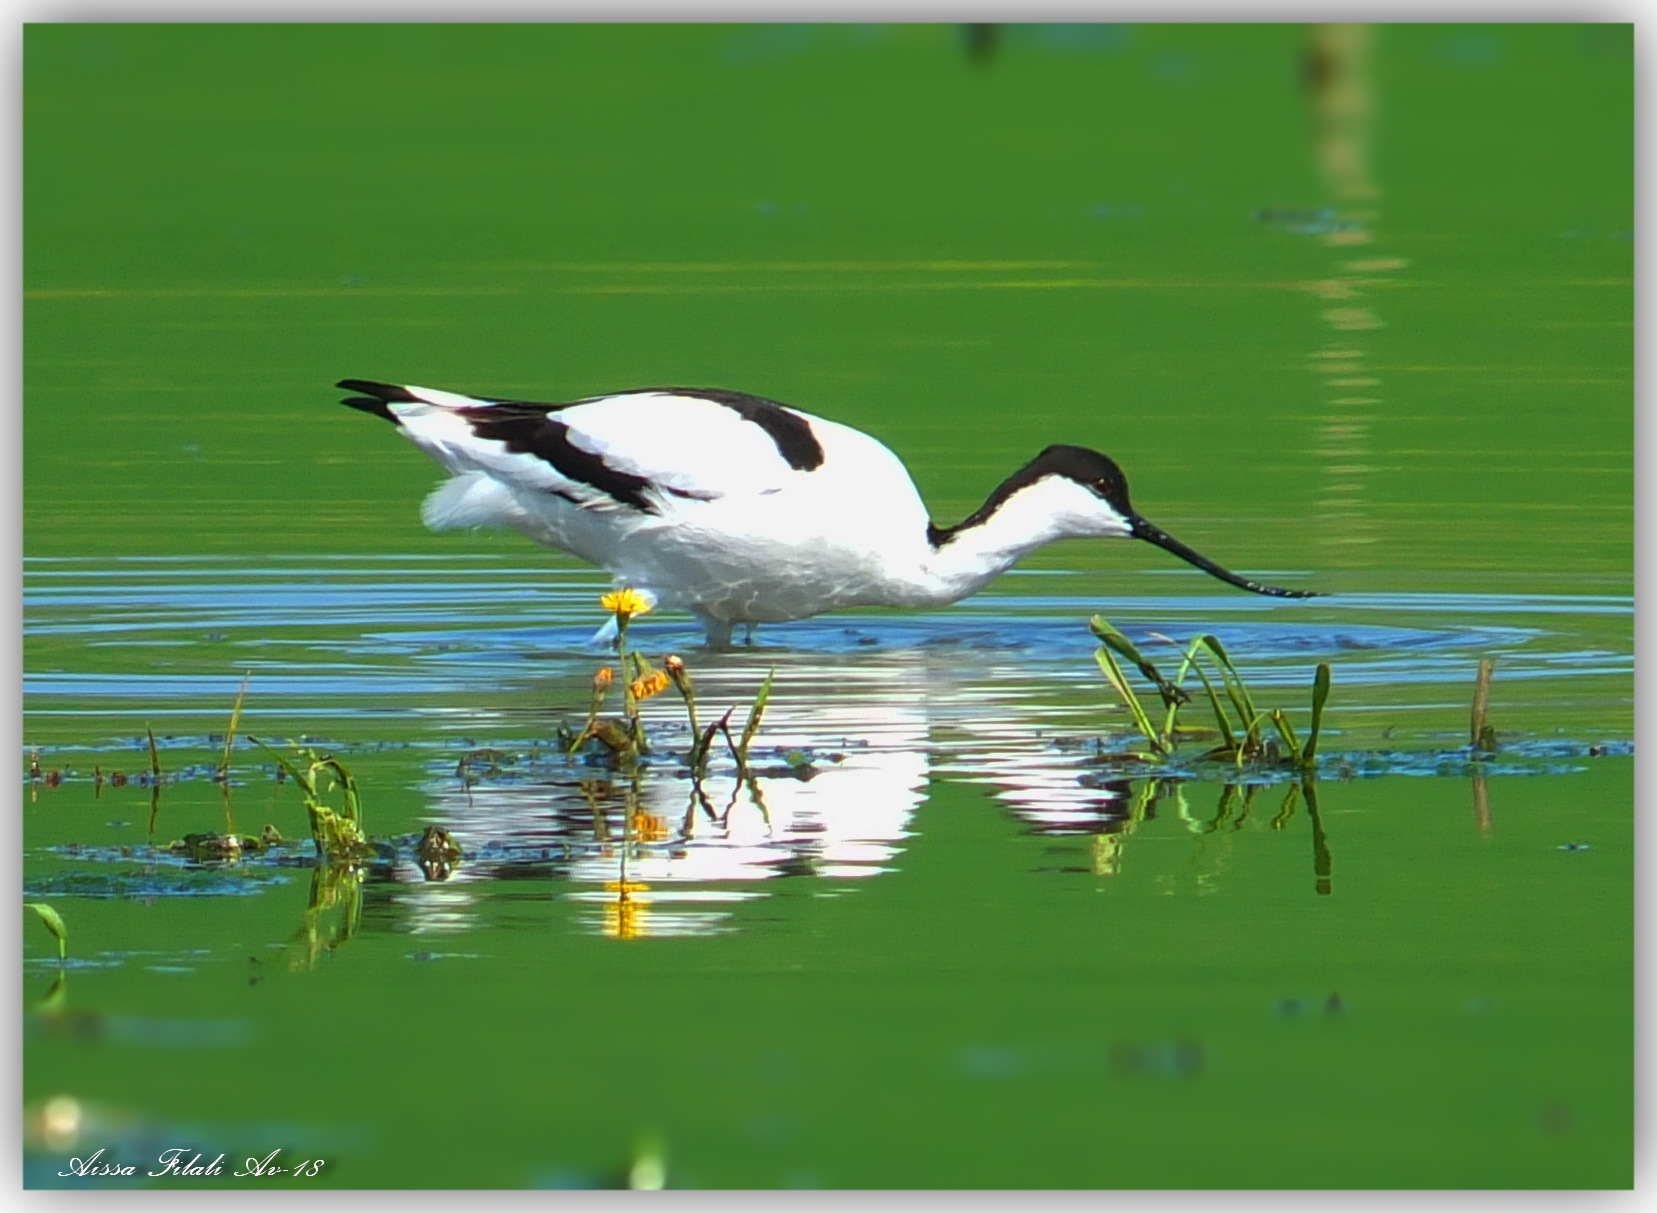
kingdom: Animalia
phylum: Chordata
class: Aves
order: Charadriiformes
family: Recurvirostridae
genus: Recurvirostra
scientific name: Recurvirostra avosetta
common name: Pied avocet
